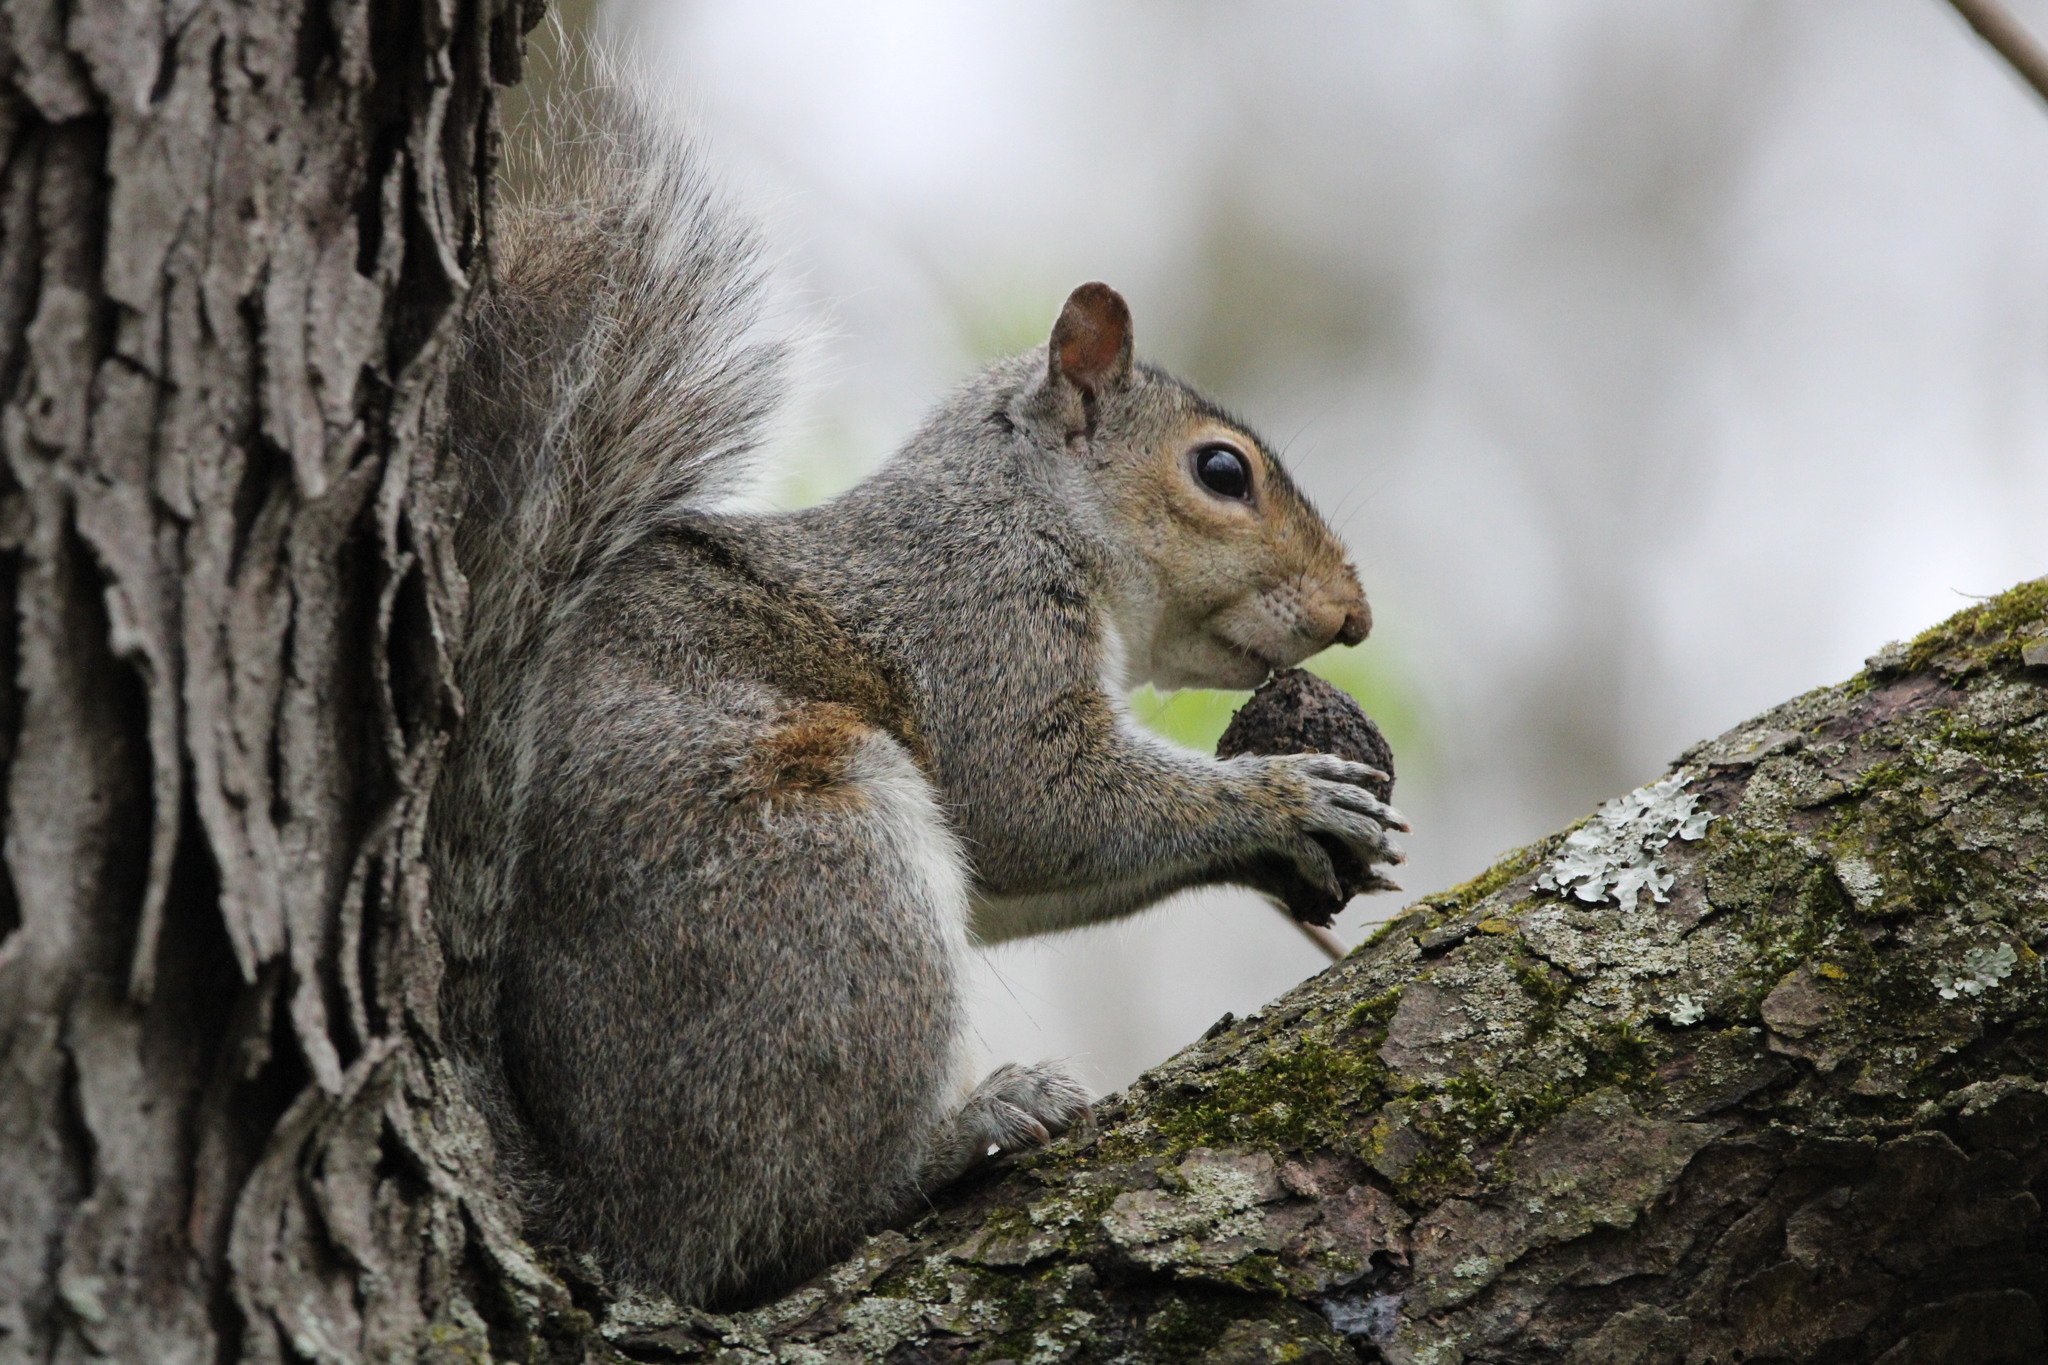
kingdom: Animalia
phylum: Chordata
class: Mammalia
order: Rodentia
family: Sciuridae
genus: Sciurus
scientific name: Sciurus carolinensis
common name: Eastern gray squirrel
